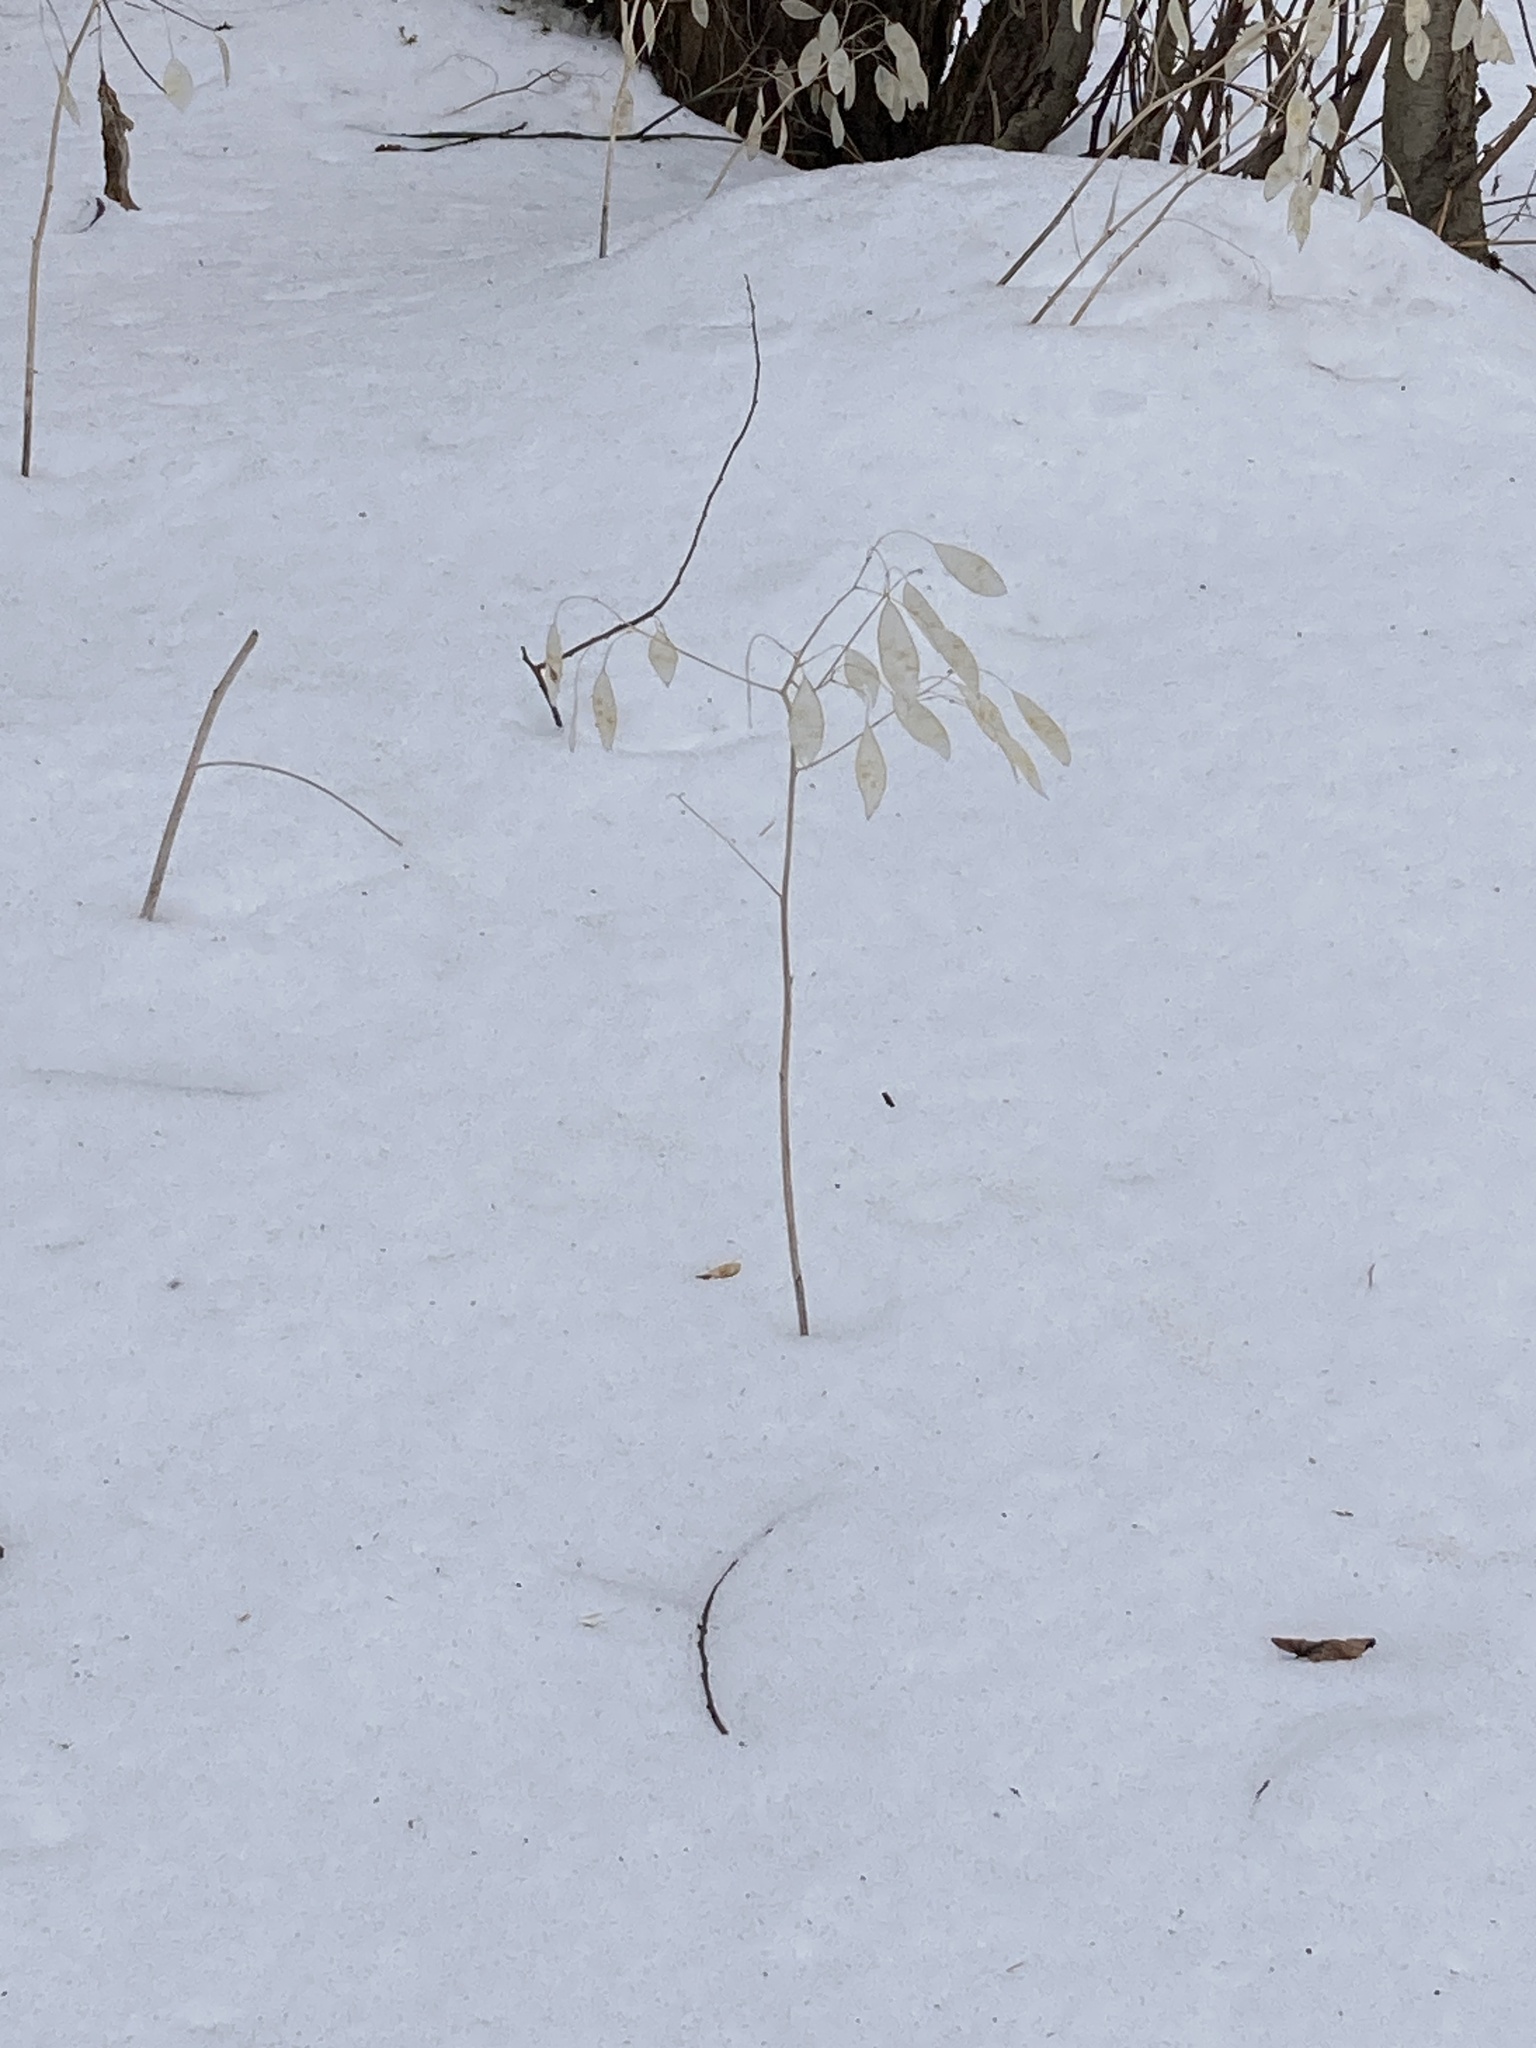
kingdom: Plantae
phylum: Tracheophyta
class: Magnoliopsida
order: Brassicales
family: Brassicaceae
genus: Lunaria
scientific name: Lunaria rediviva
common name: Perennial honesty
